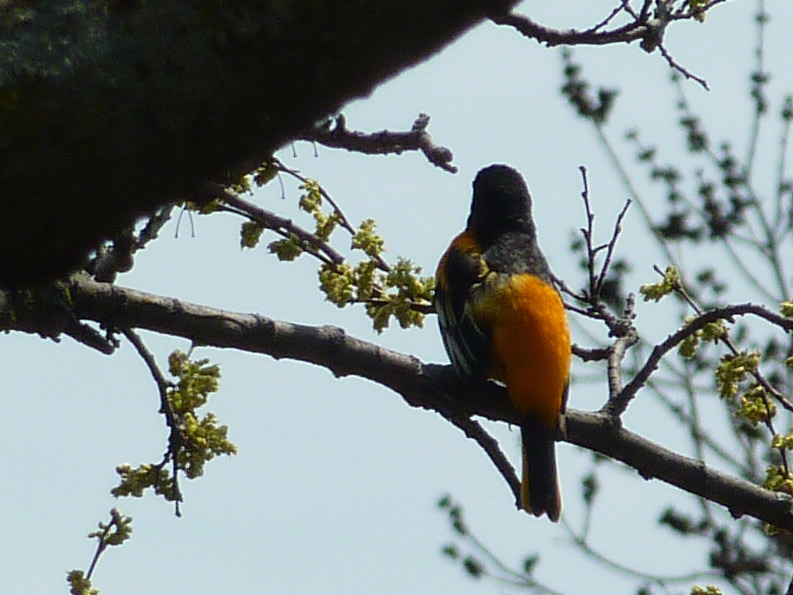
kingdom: Animalia
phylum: Chordata
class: Aves
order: Passeriformes
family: Icteridae
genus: Icterus
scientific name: Icterus galbula
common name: Baltimore oriole
